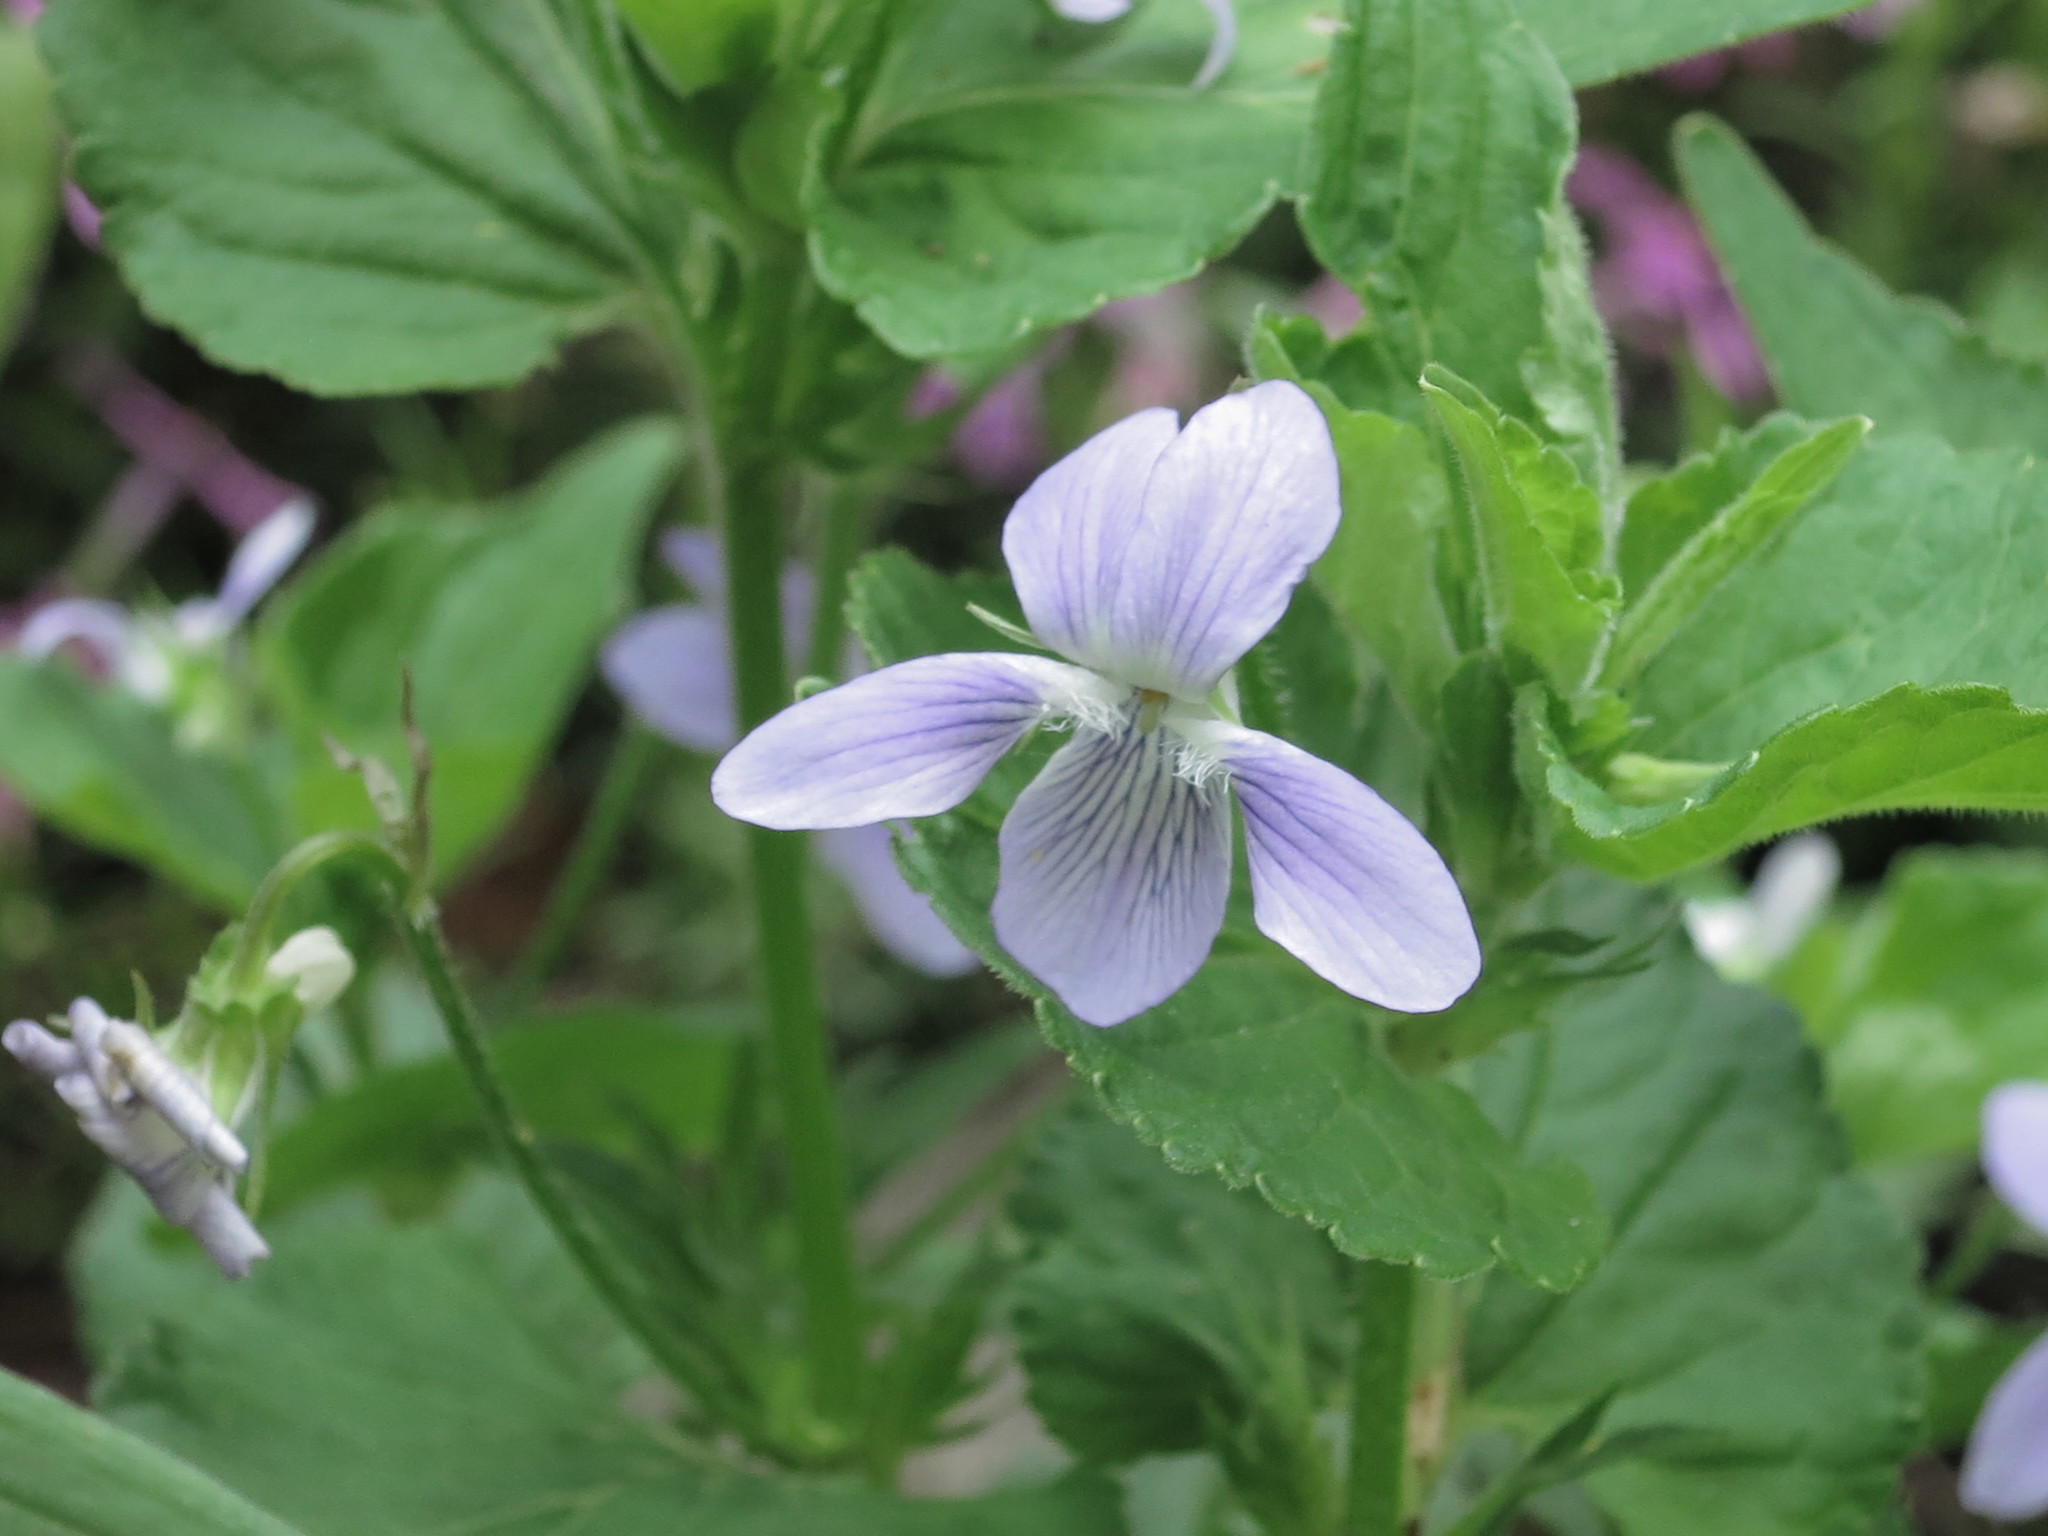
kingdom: Plantae
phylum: Tracheophyta
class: Magnoliopsida
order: Malpighiales
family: Violaceae
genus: Viola
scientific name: Viola acuminata
